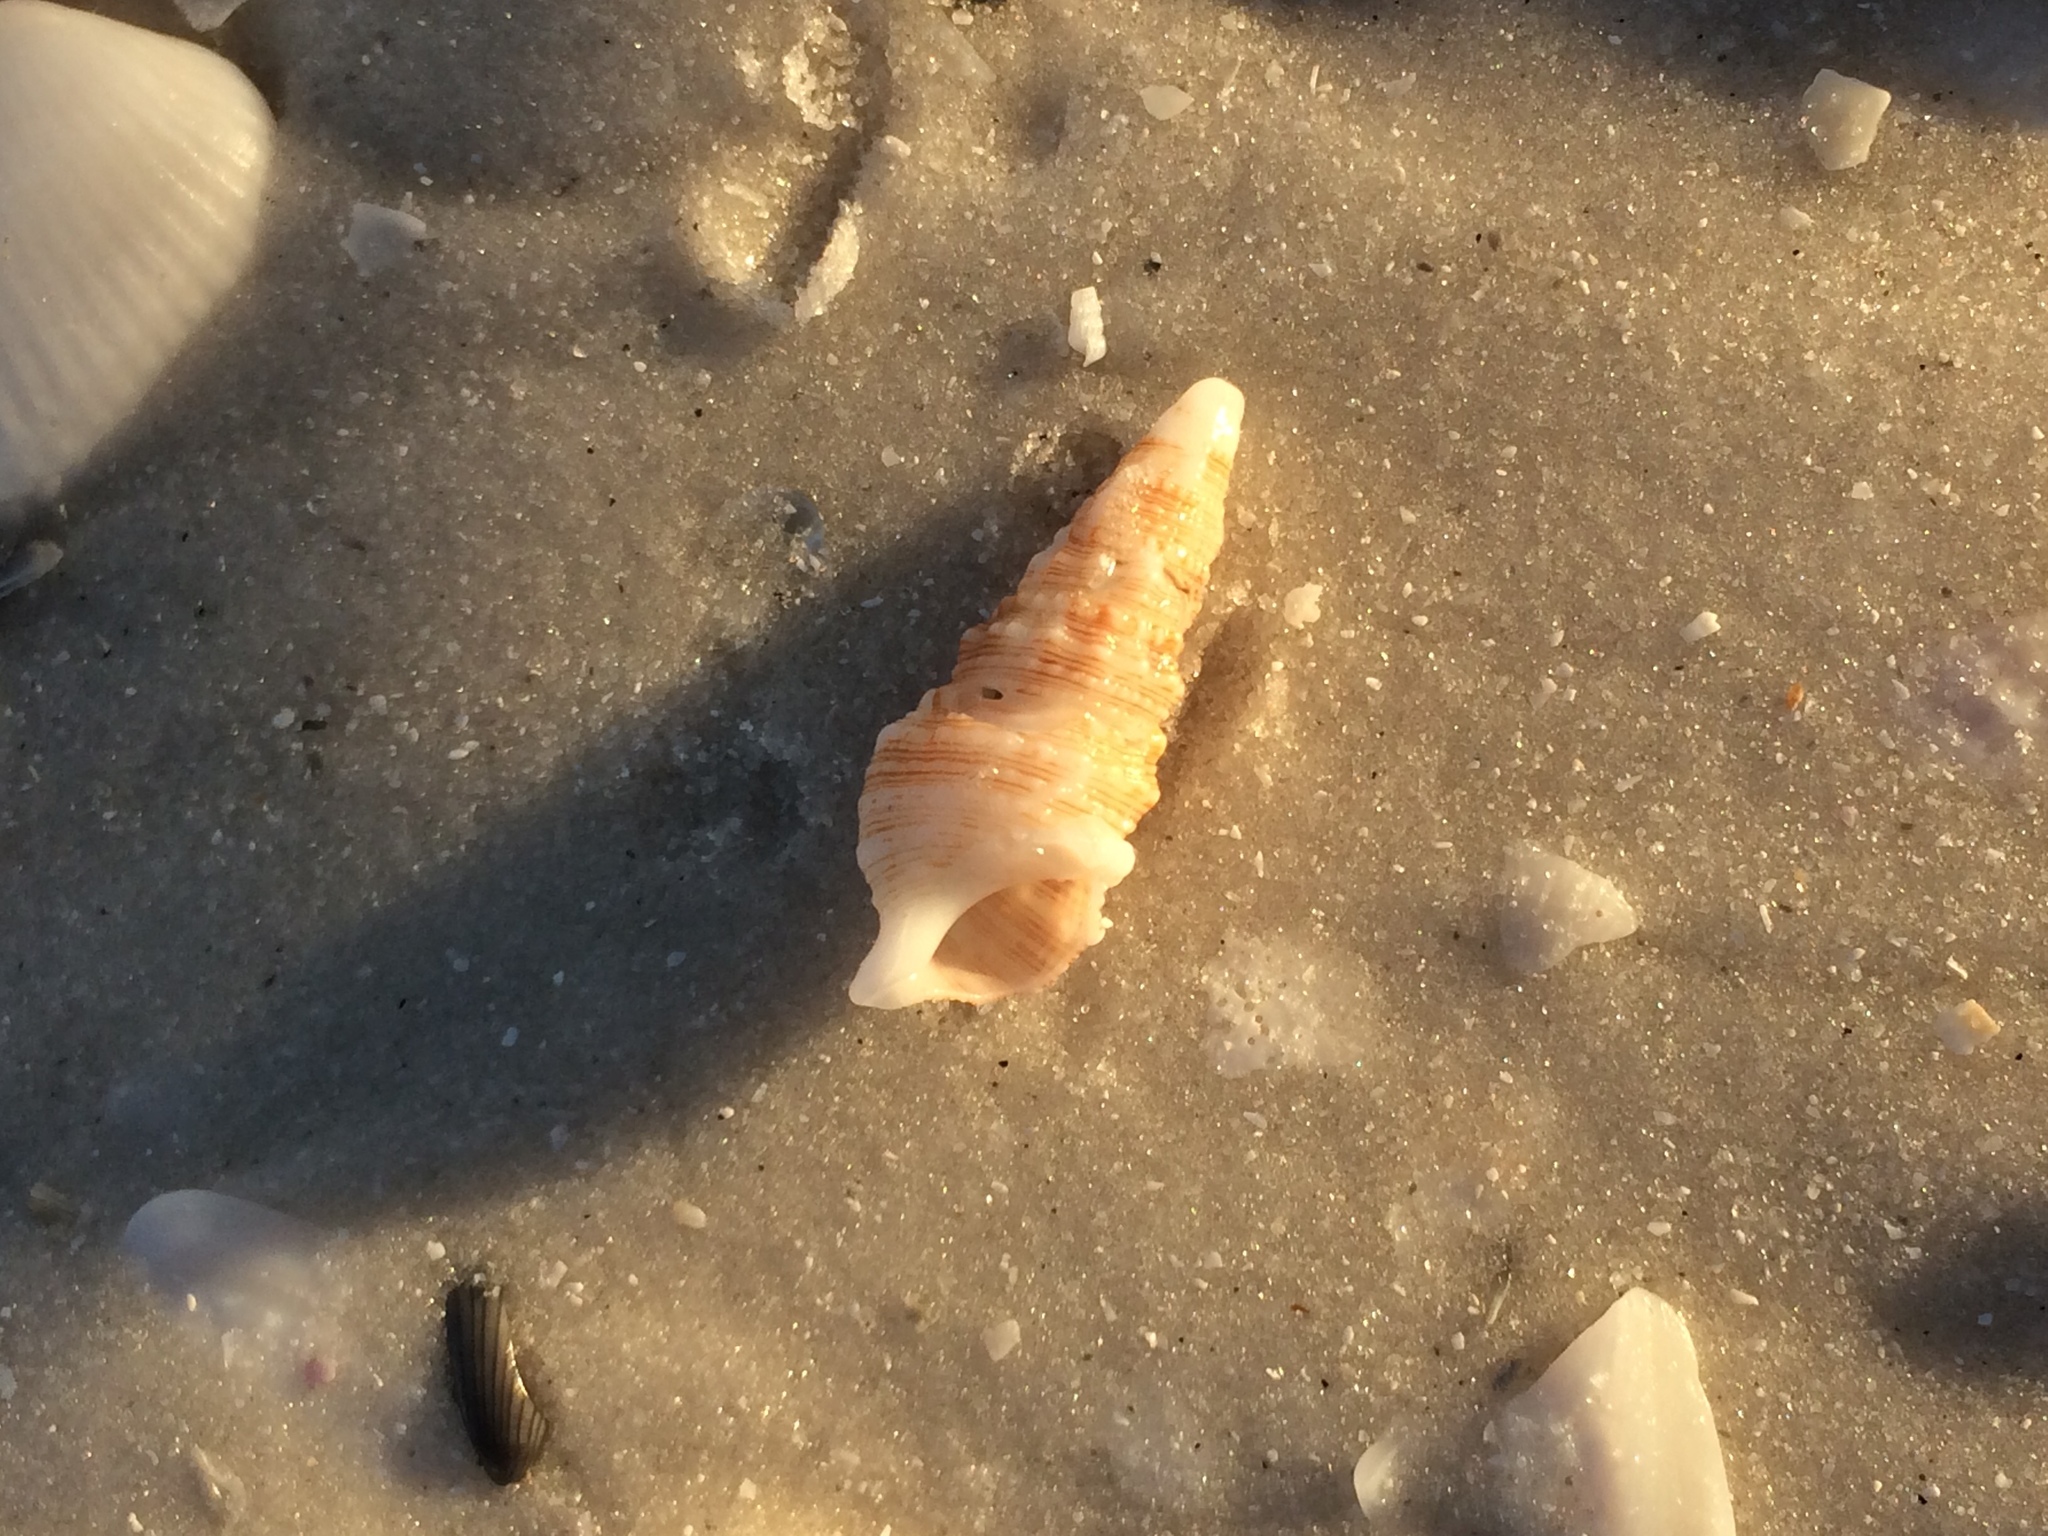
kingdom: Animalia
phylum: Mollusca
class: Gastropoda
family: Cerithiidae
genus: Cerithium
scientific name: Cerithium atratum
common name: Dark cerith
